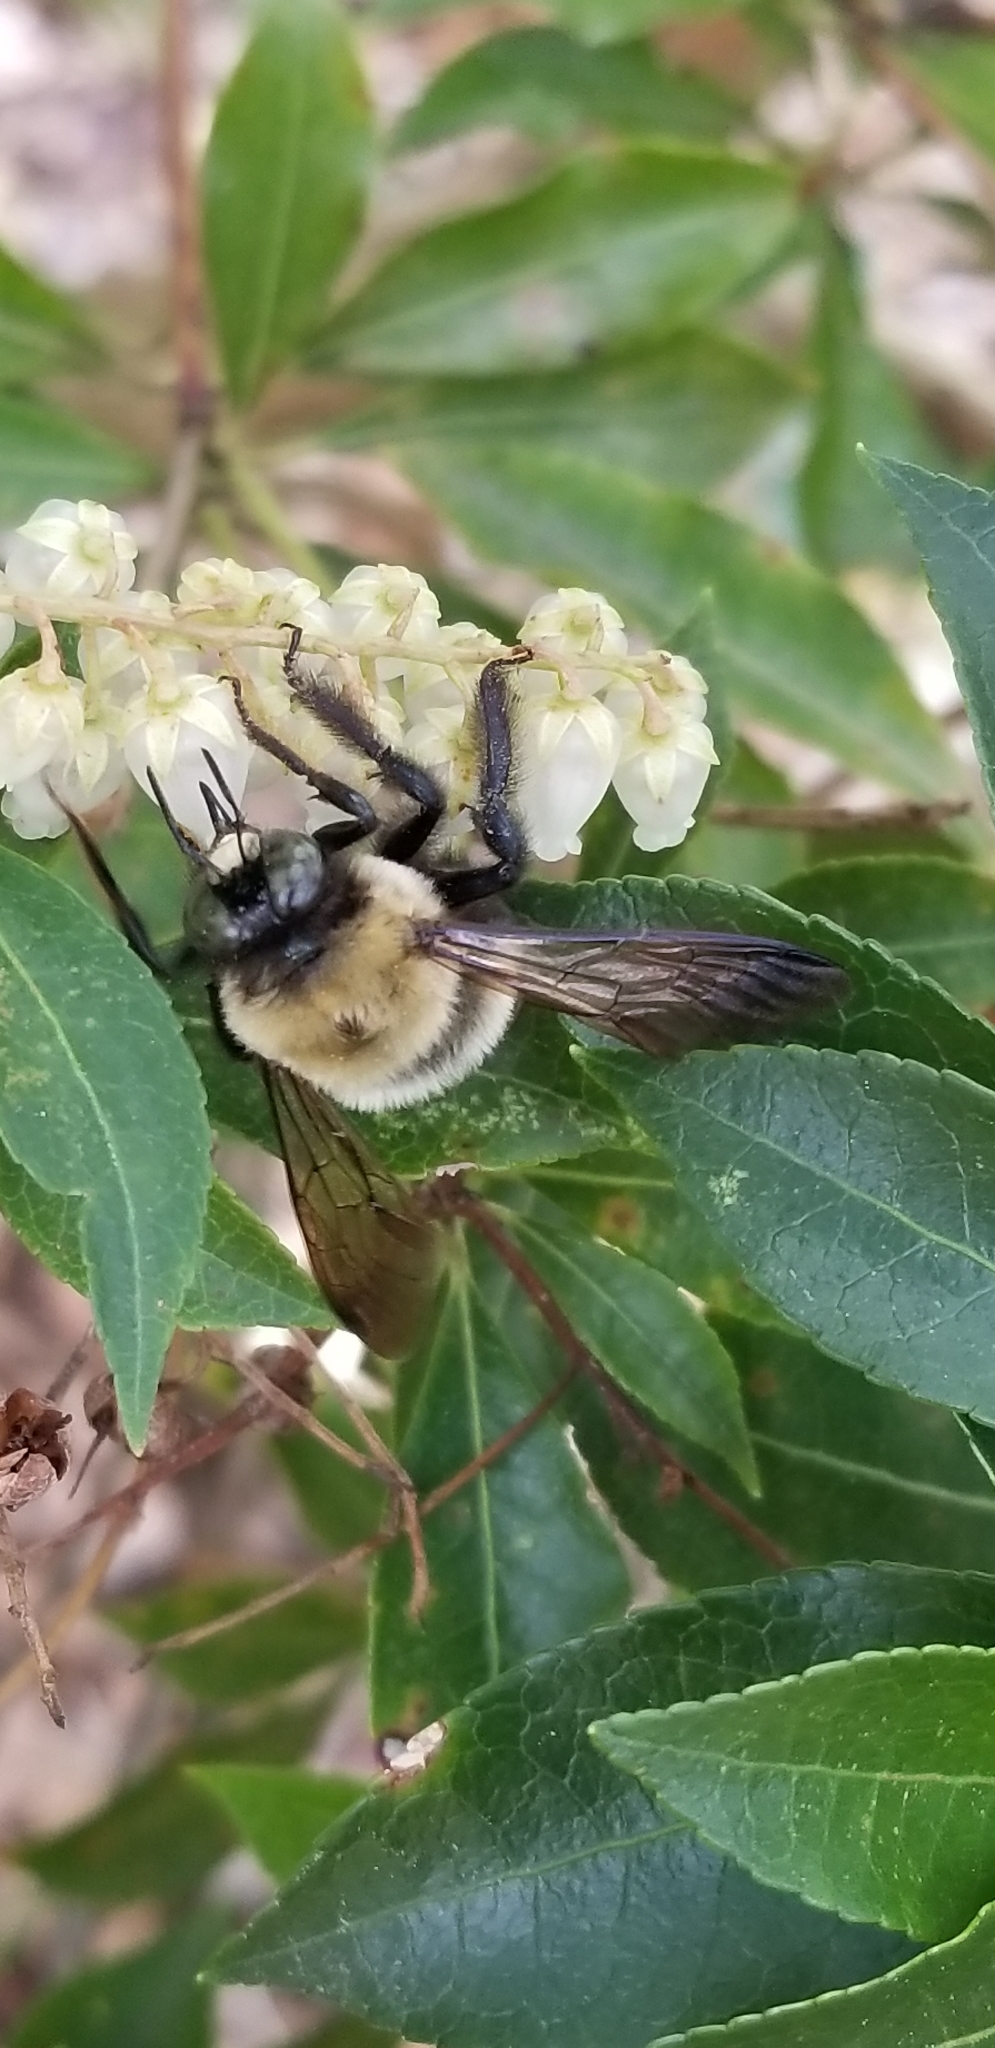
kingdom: Animalia
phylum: Arthropoda
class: Insecta
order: Hymenoptera
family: Apidae
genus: Xylocopa
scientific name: Xylocopa virginica
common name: Carpenter bee
